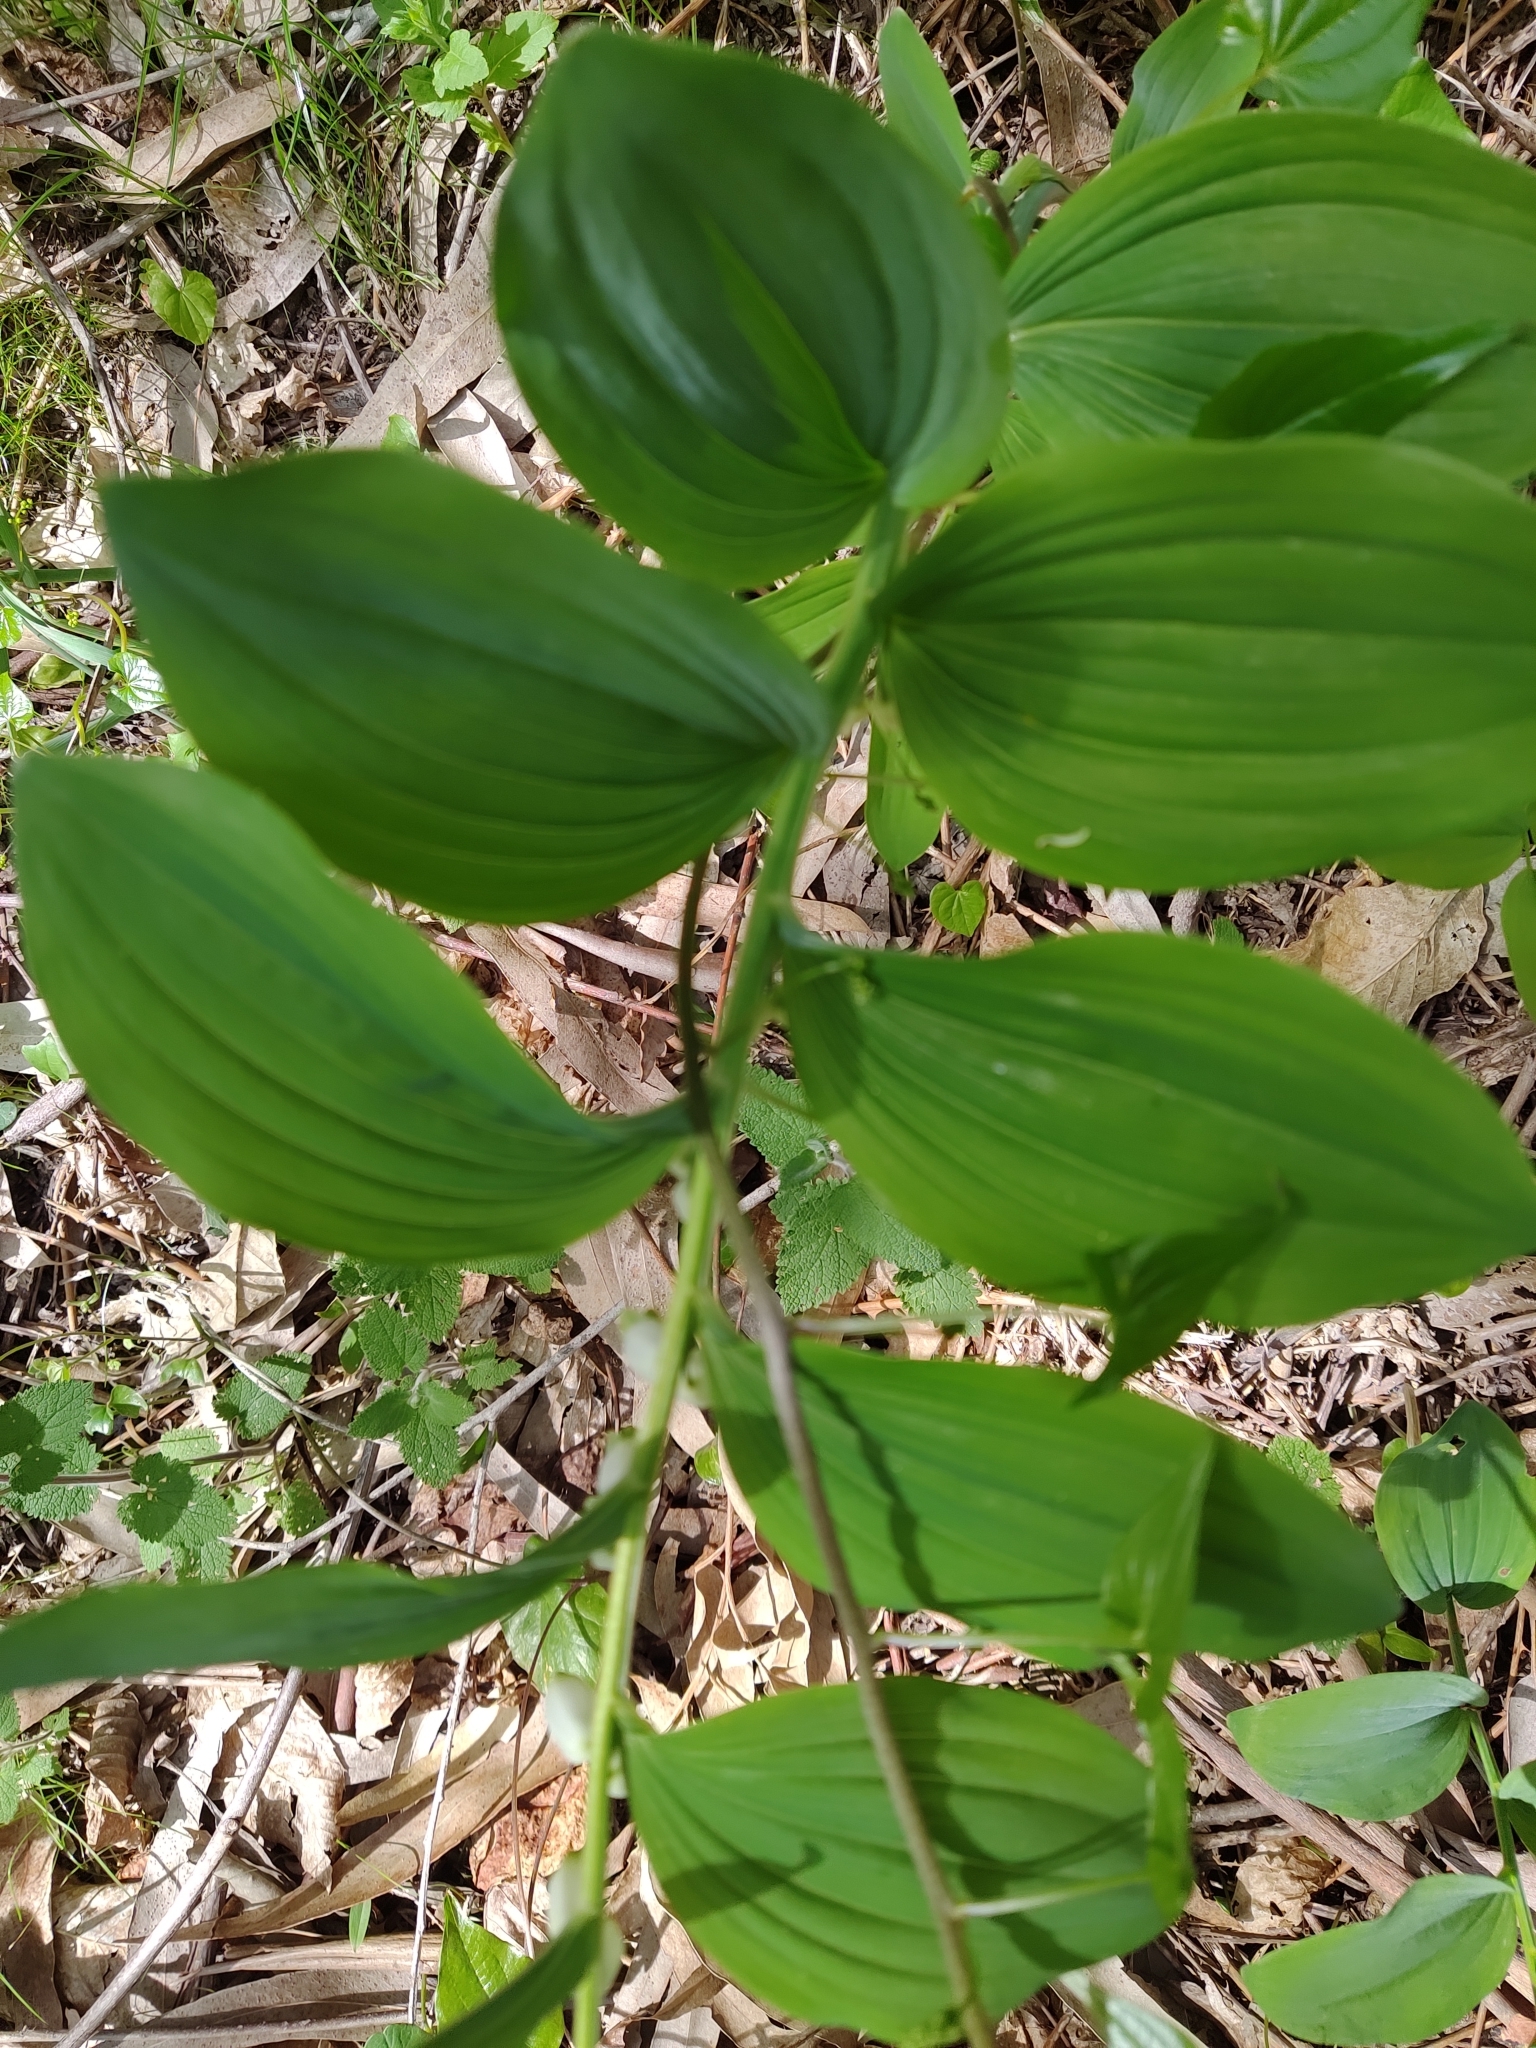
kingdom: Plantae
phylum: Tracheophyta
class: Liliopsida
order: Asparagales
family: Asparagaceae
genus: Polygonatum
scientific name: Polygonatum odoratum
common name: Angular solomon's-seal
